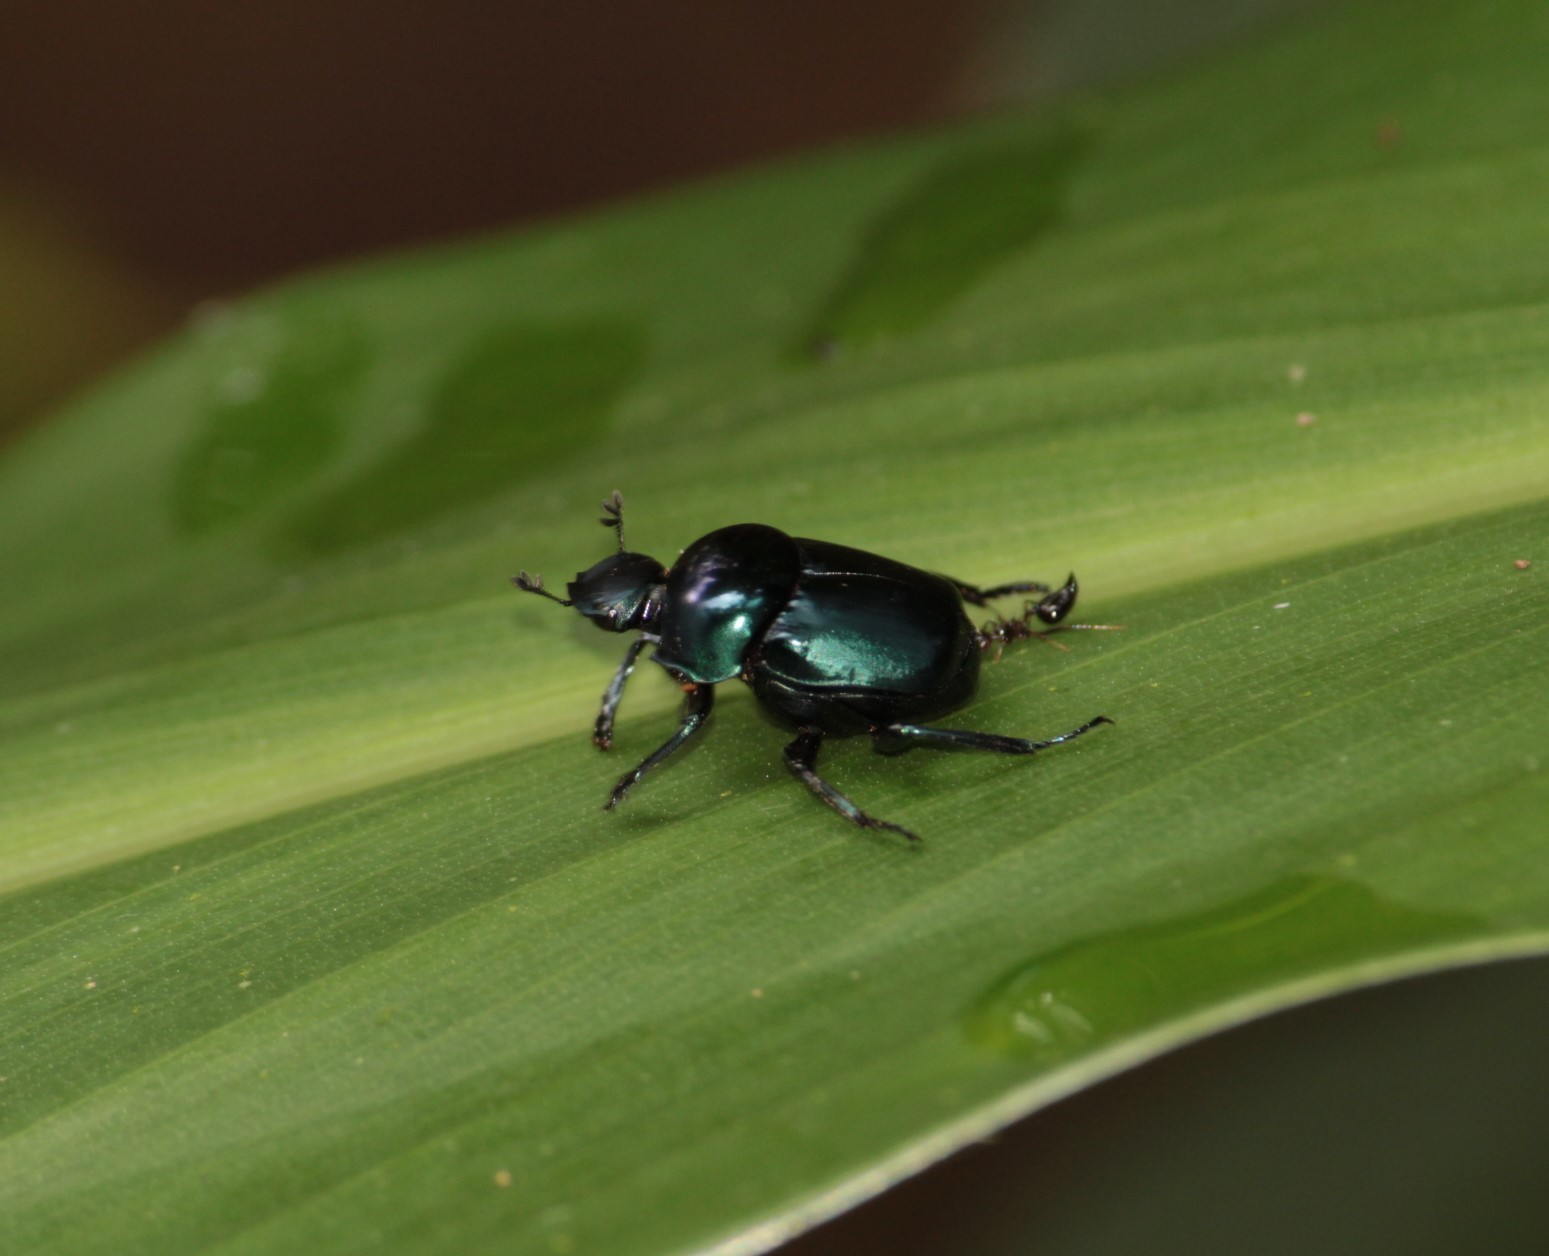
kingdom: Animalia
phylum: Arthropoda
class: Insecta
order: Coleoptera
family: Scarabaeidae
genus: Canthon
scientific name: Canthon rutilans
